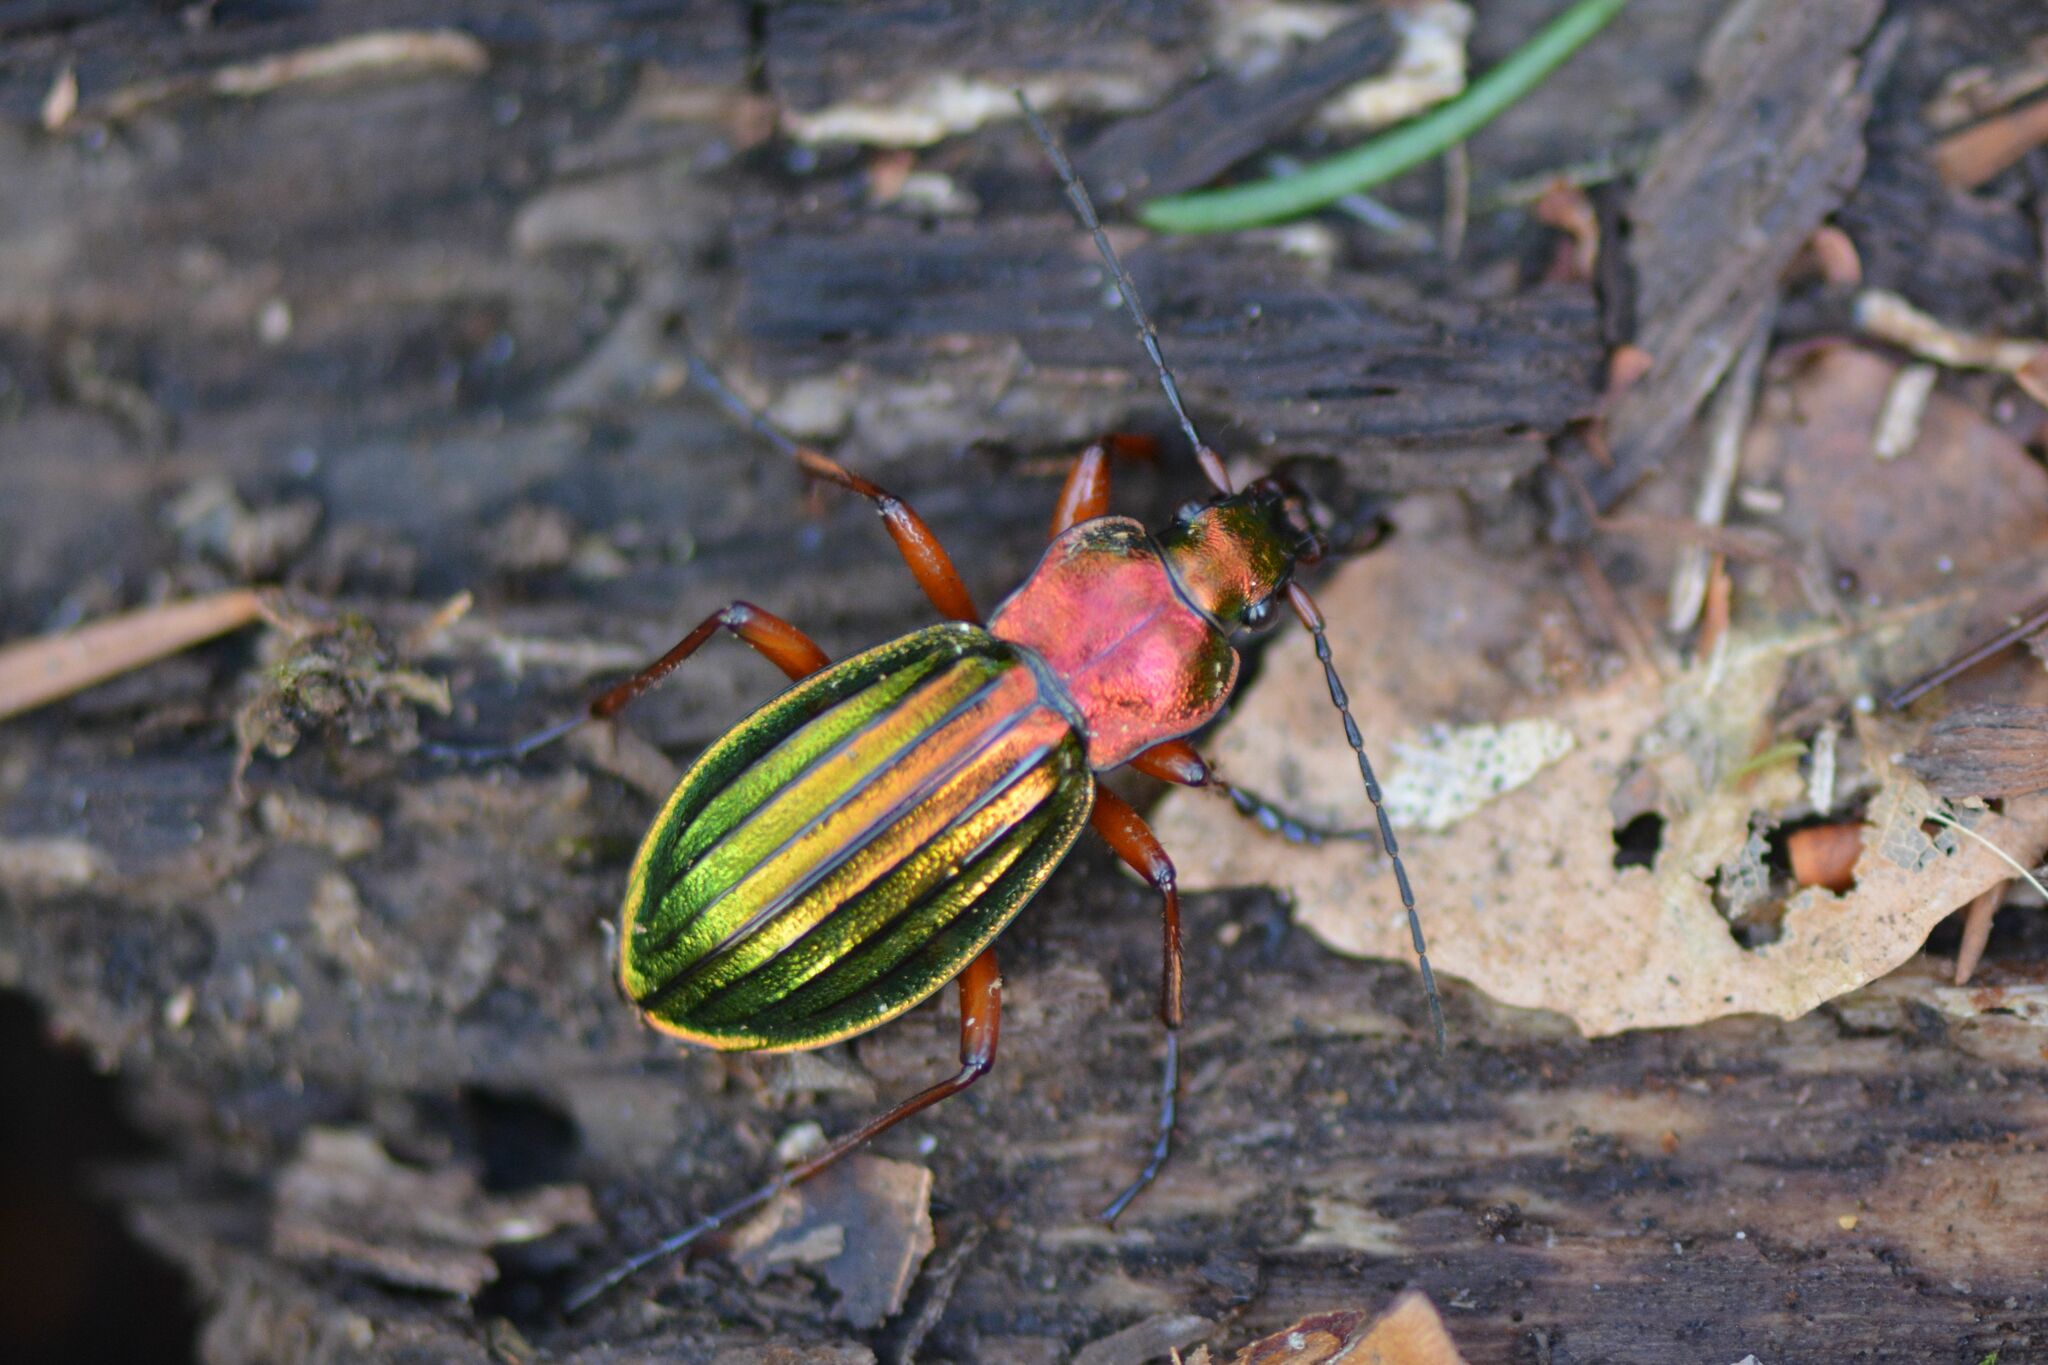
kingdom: Animalia
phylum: Arthropoda
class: Insecta
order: Coleoptera
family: Carabidae
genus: Carabus
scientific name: Carabus auronitens
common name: Carabus auronitens
